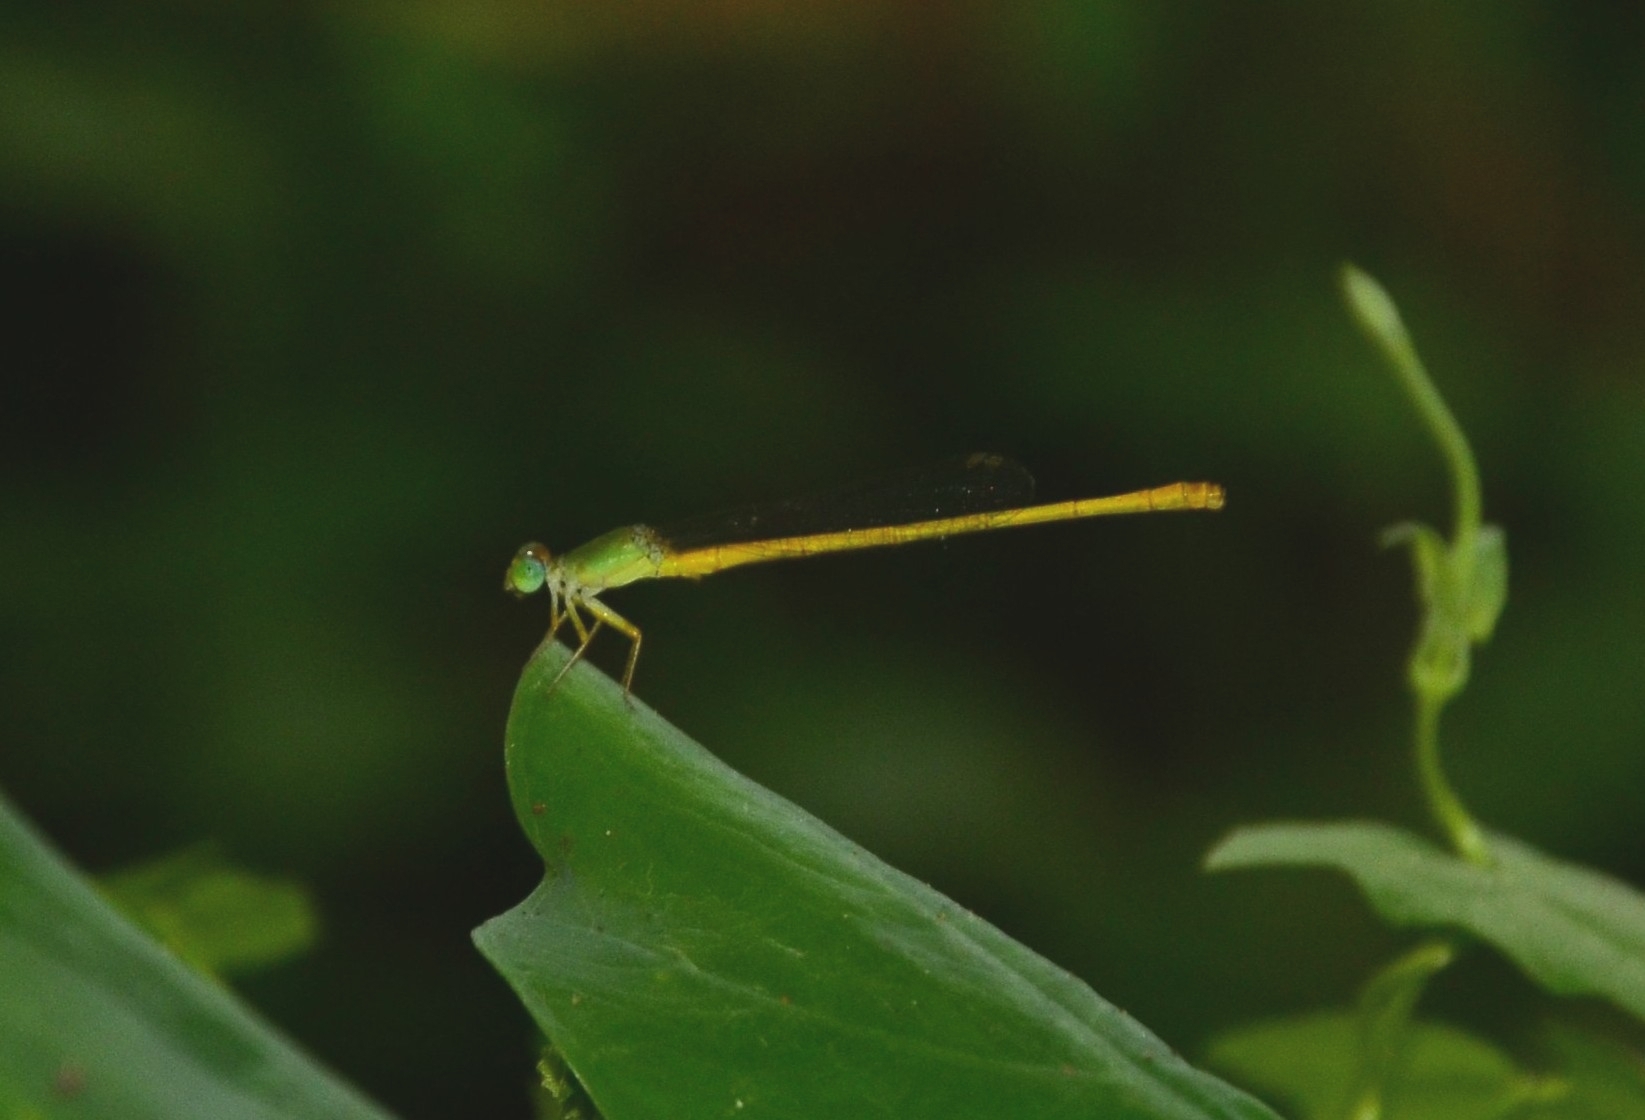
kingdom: Animalia
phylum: Arthropoda
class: Insecta
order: Odonata
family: Coenagrionidae
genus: Ceriagrion
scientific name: Ceriagrion coromandelianum
